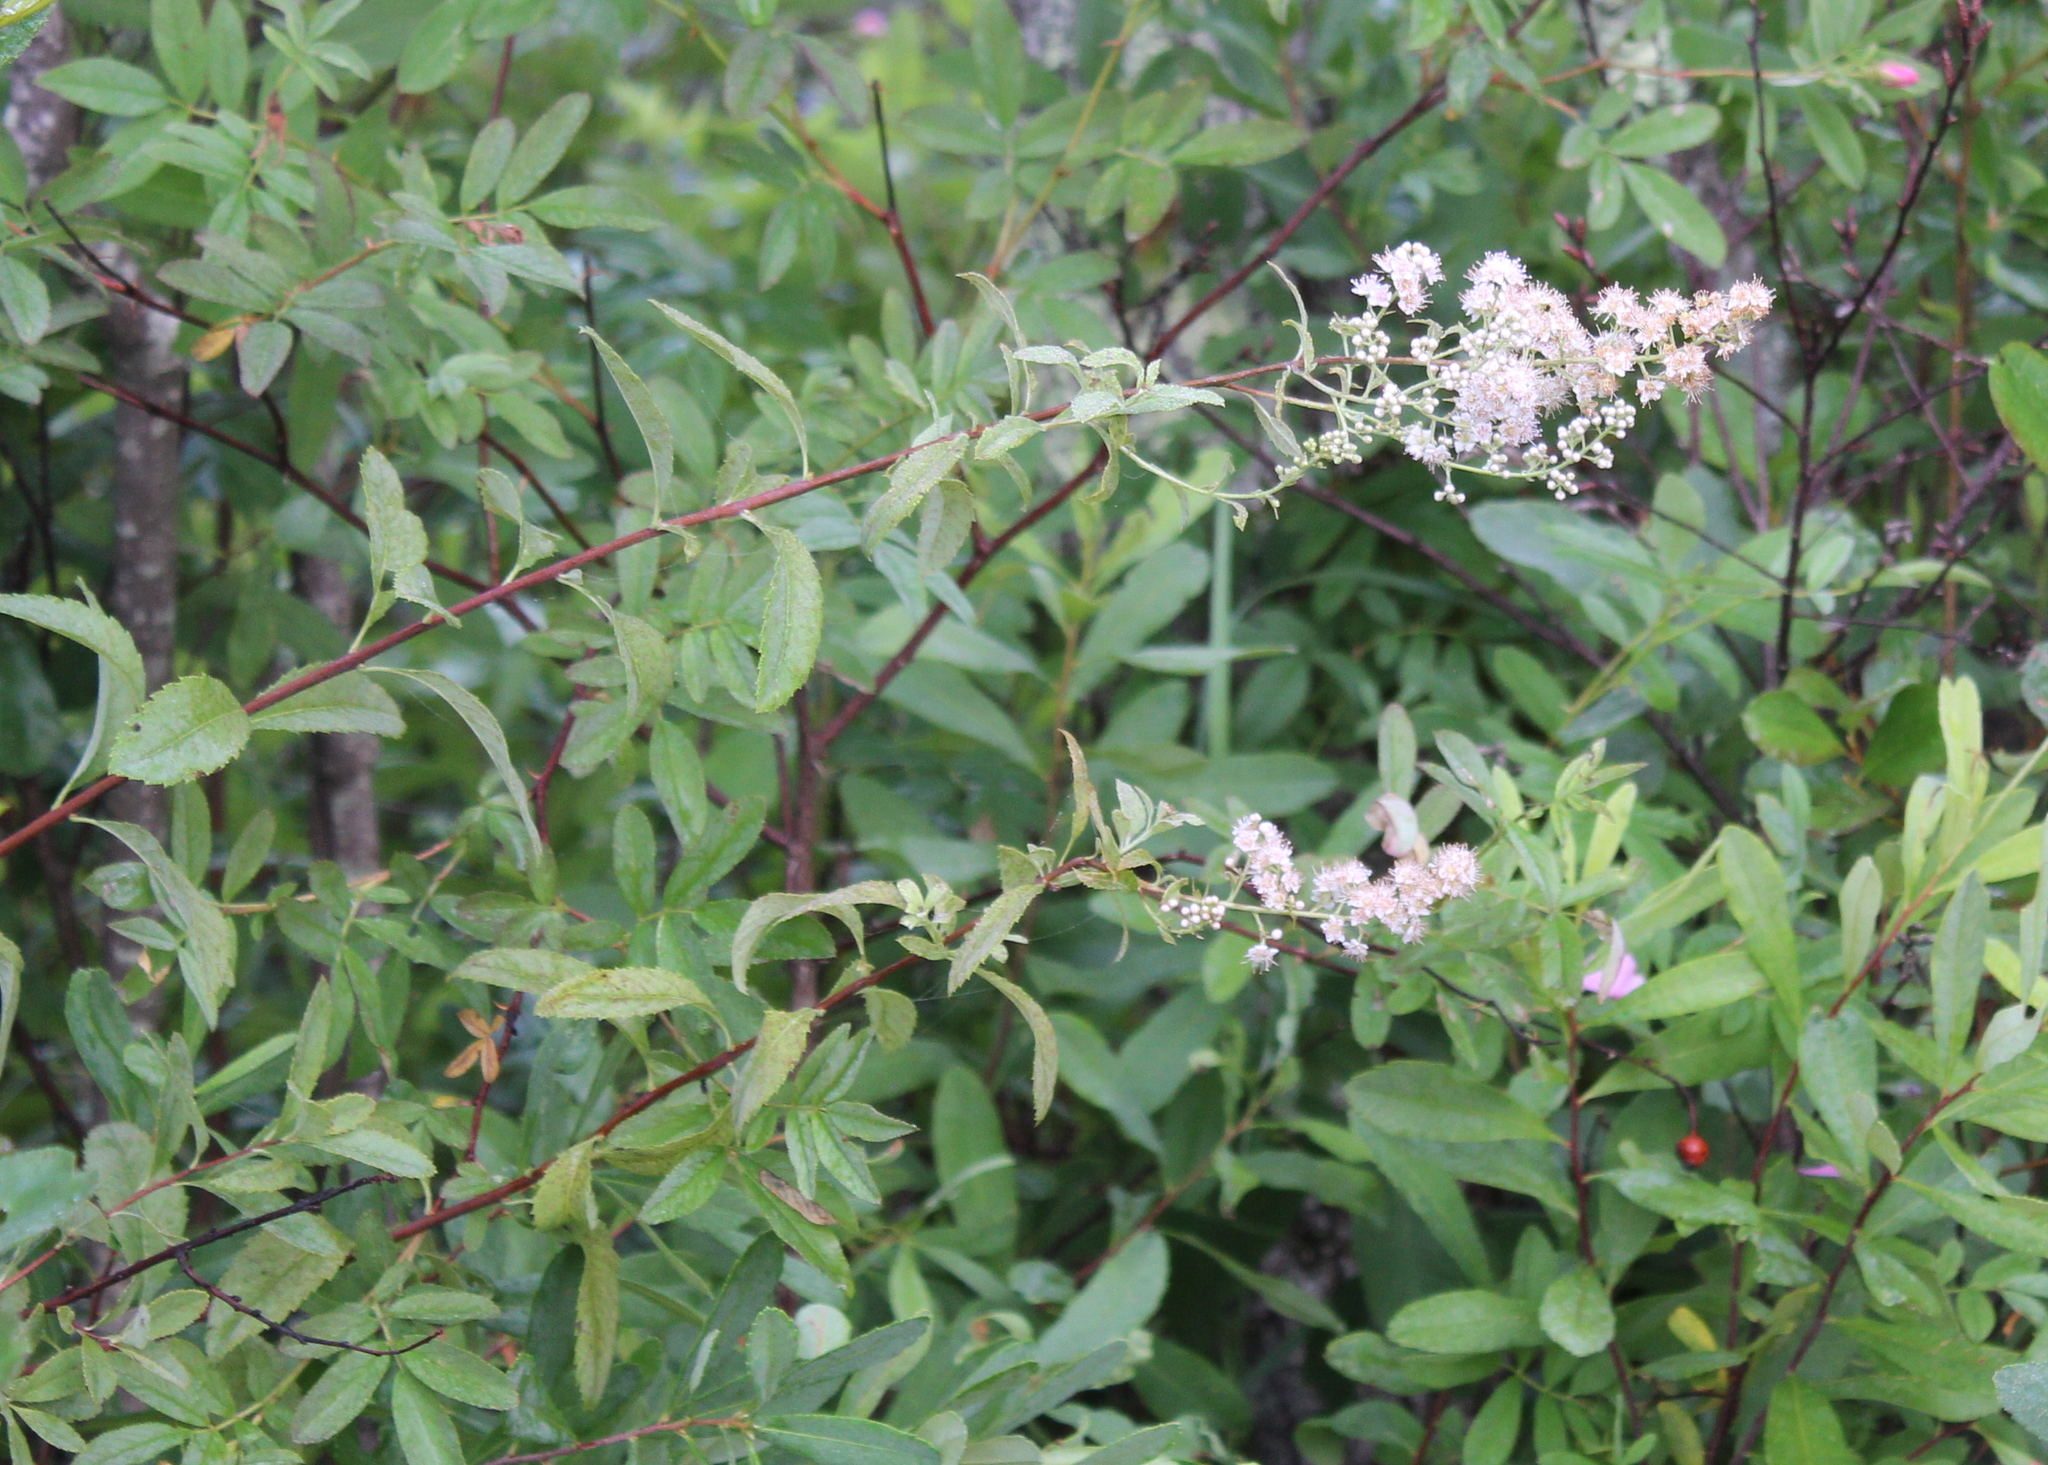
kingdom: Plantae
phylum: Tracheophyta
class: Magnoliopsida
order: Rosales
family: Rosaceae
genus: Spiraea
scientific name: Spiraea alba
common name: Pale bridewort
